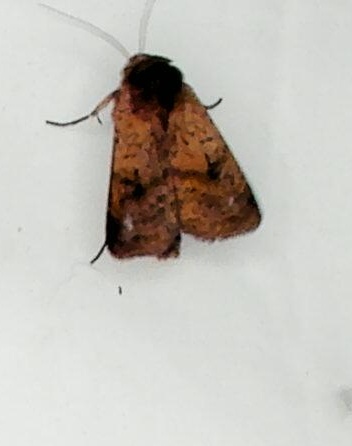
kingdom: Animalia
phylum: Arthropoda
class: Insecta
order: Lepidoptera
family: Noctuidae
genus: Diarsia
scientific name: Diarsia intermixta
